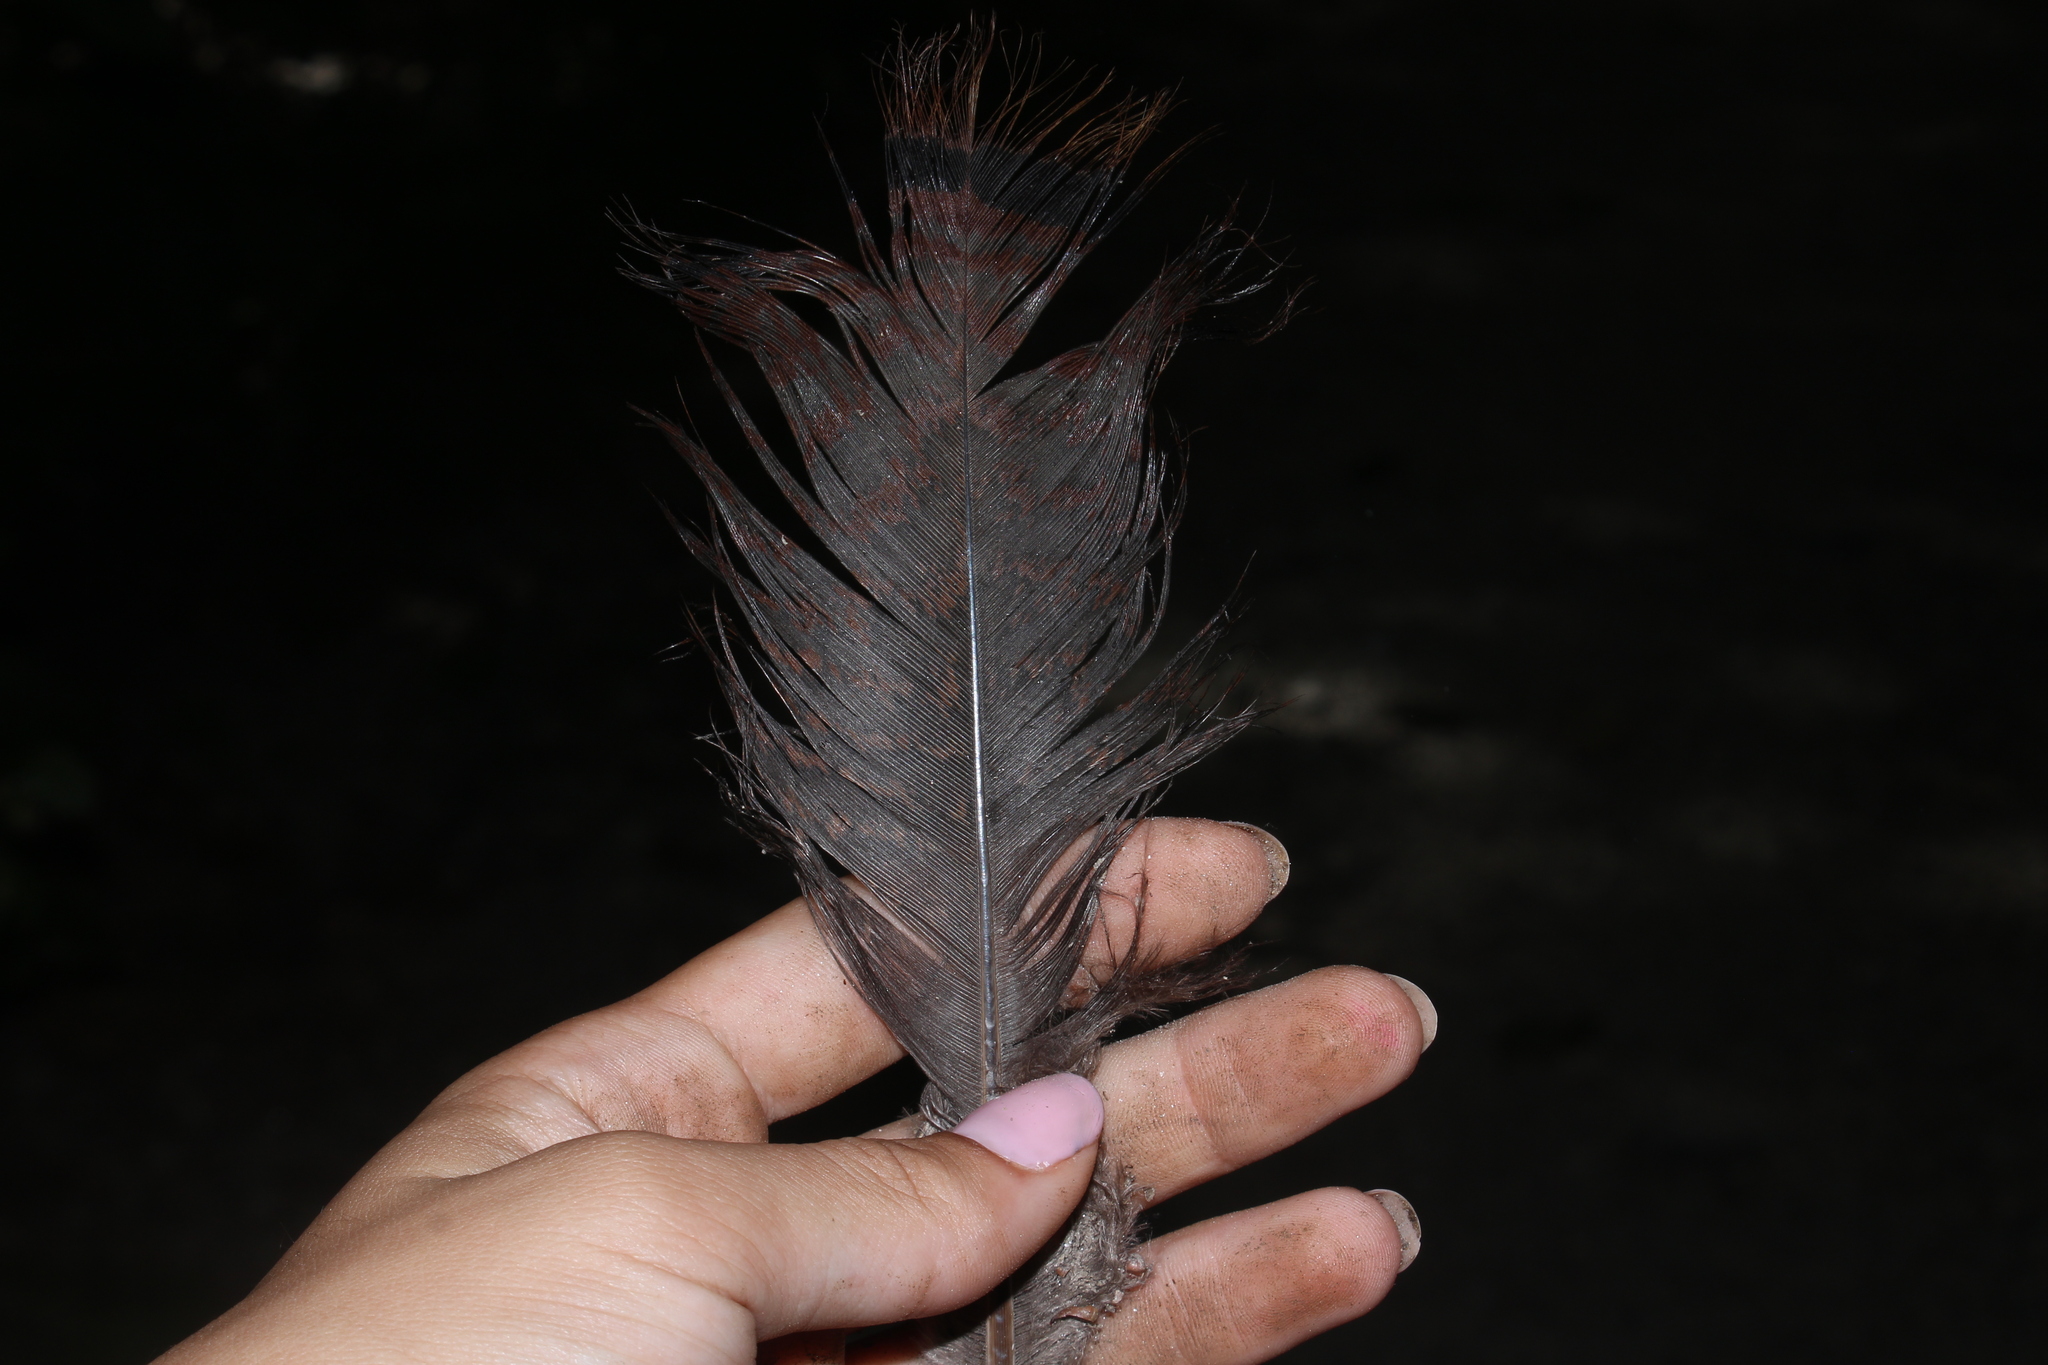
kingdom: Animalia
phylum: Chordata
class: Aves
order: Galliformes
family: Phasianidae
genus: Meleagris
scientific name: Meleagris gallopavo
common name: Wild turkey
